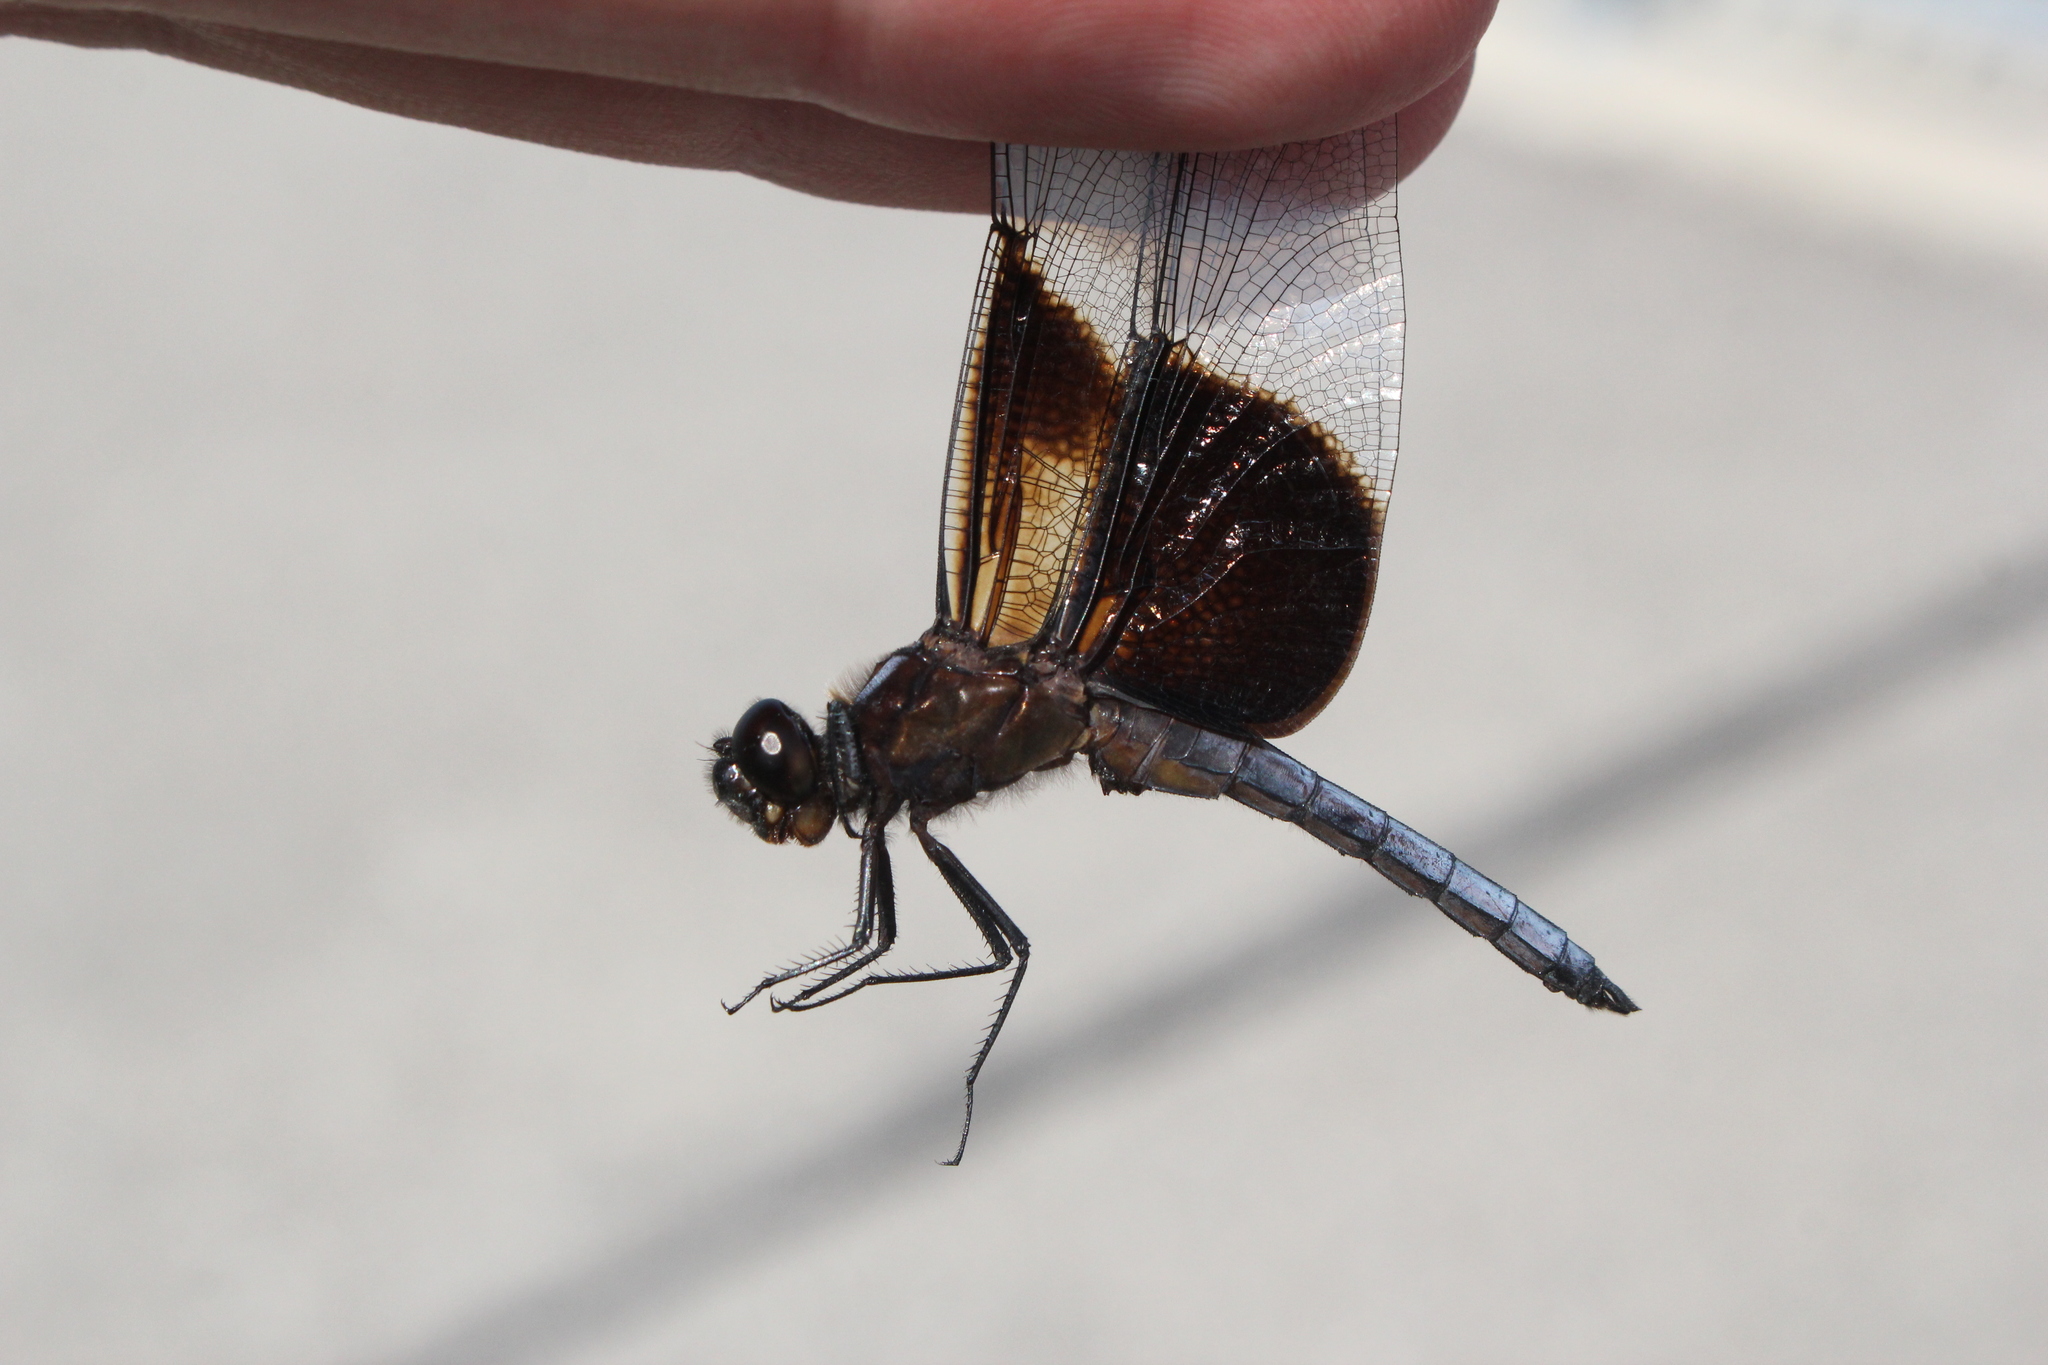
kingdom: Animalia
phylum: Arthropoda
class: Insecta
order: Odonata
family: Libellulidae
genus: Libellula
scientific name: Libellula luctuosa
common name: Widow skimmer
